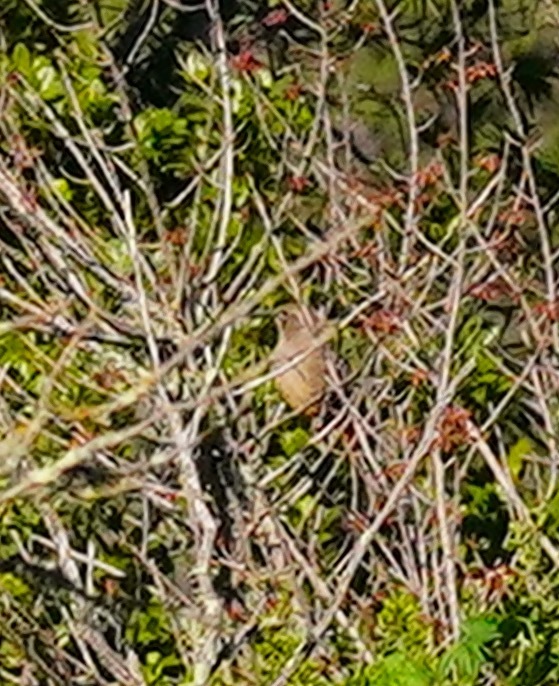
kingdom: Animalia
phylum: Chordata
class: Aves
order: Passeriformes
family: Mimidae
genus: Toxostoma
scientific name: Toxostoma redivivum
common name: California thrasher
